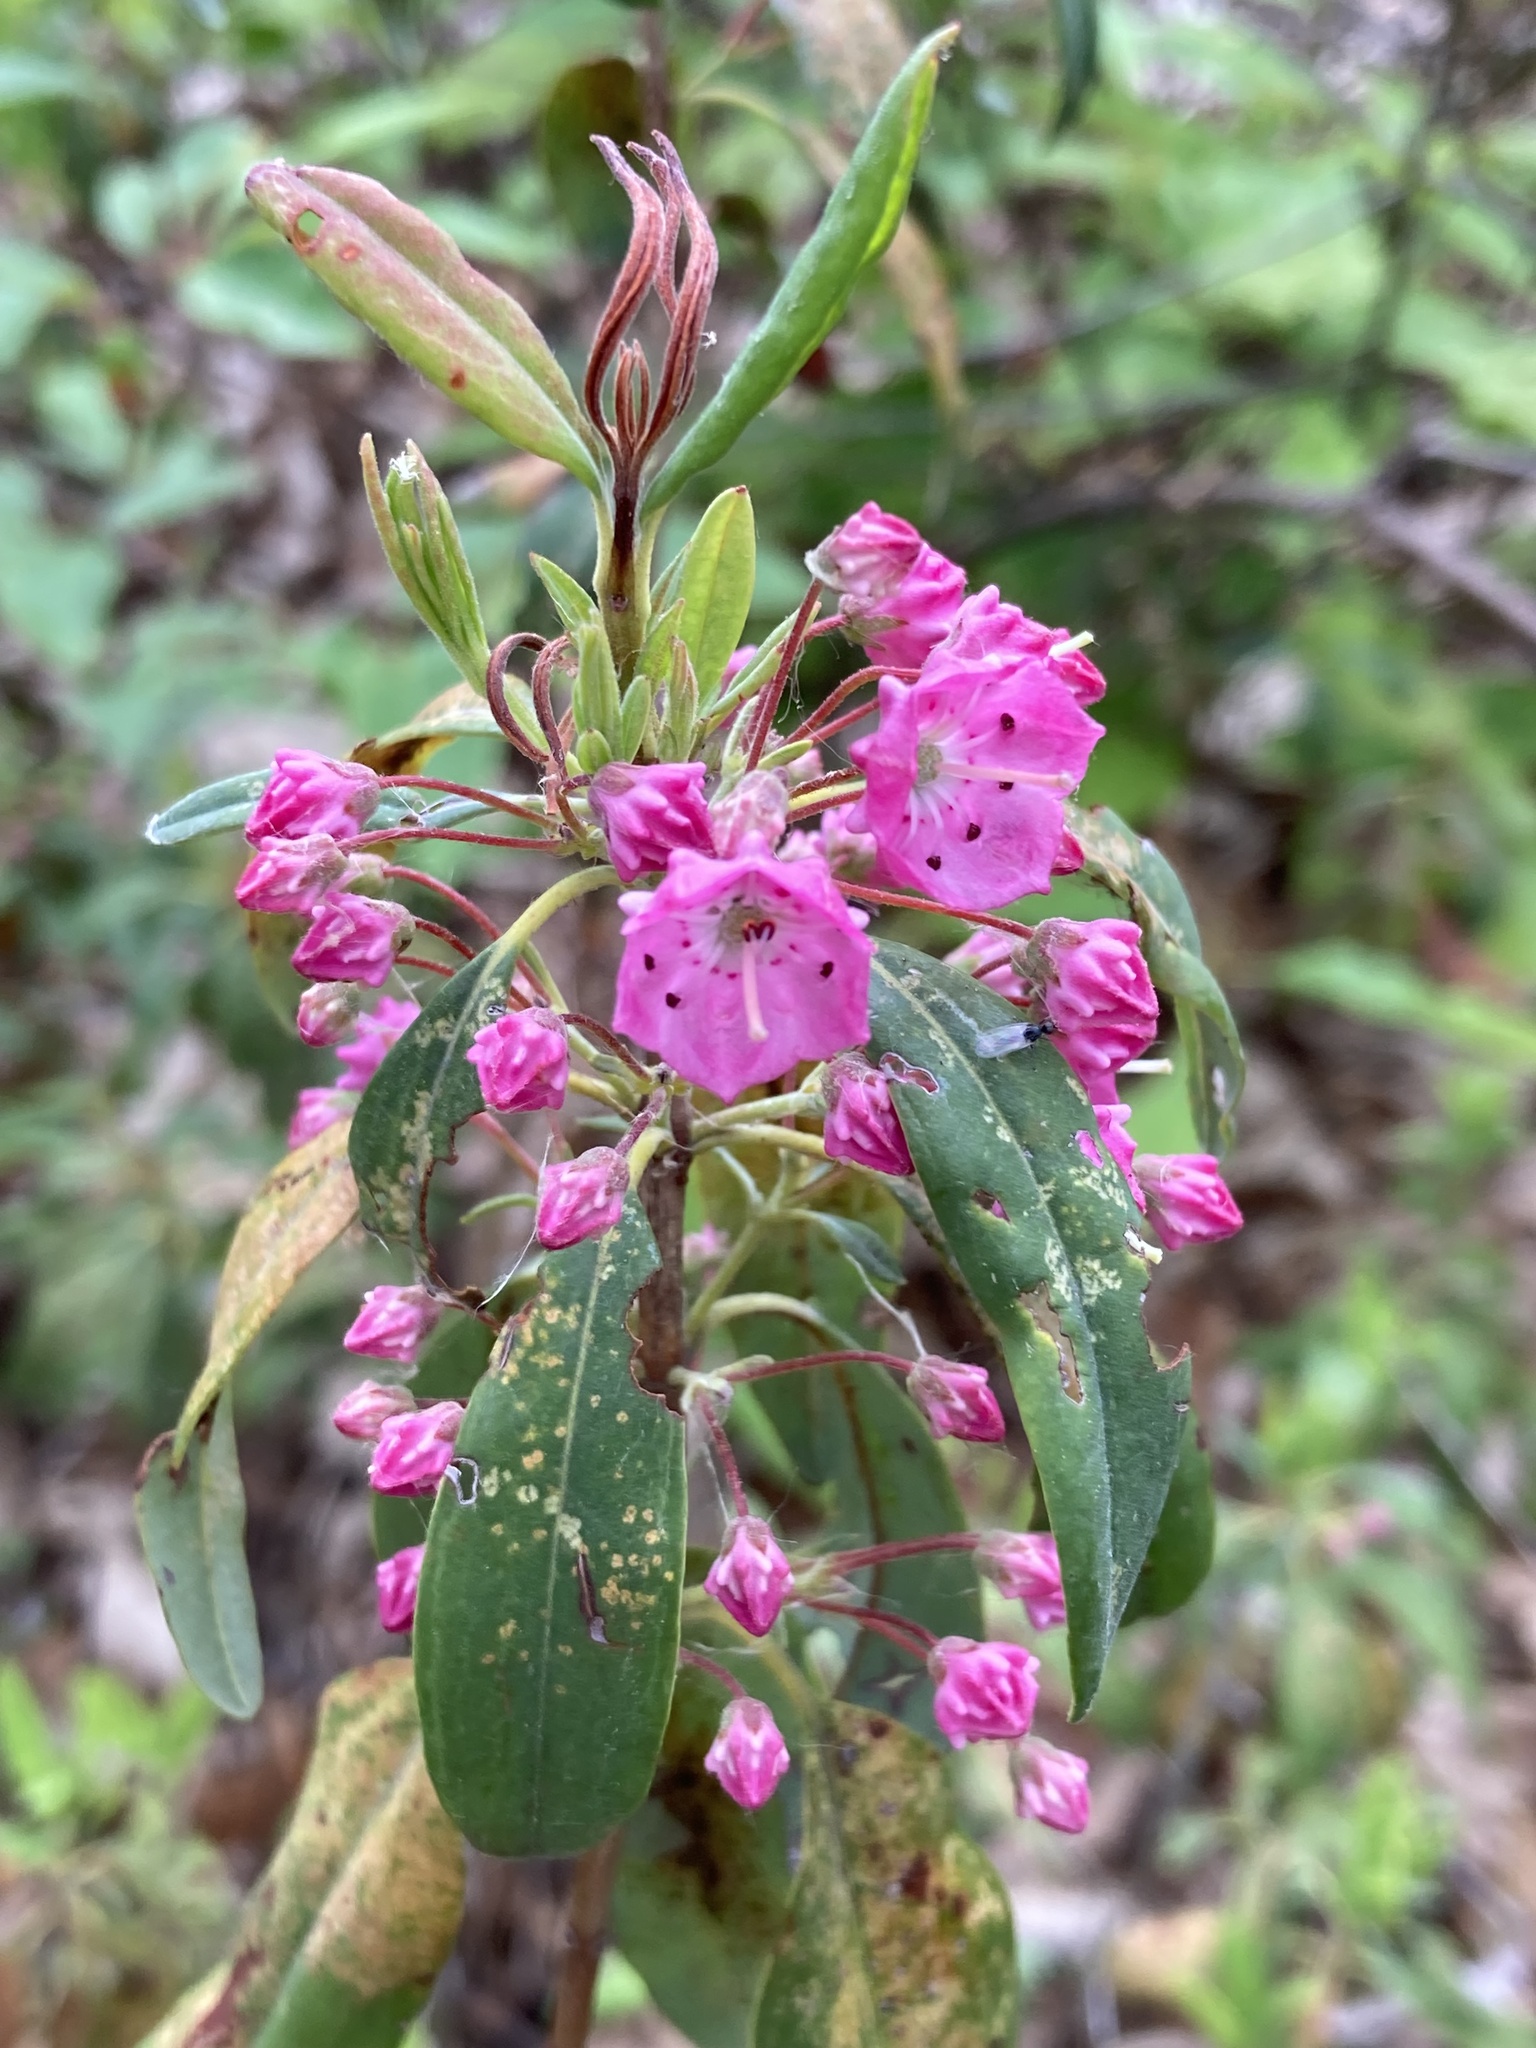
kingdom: Plantae
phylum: Tracheophyta
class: Magnoliopsida
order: Ericales
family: Ericaceae
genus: Kalmia
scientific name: Kalmia angustifolia
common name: Sheep-laurel
